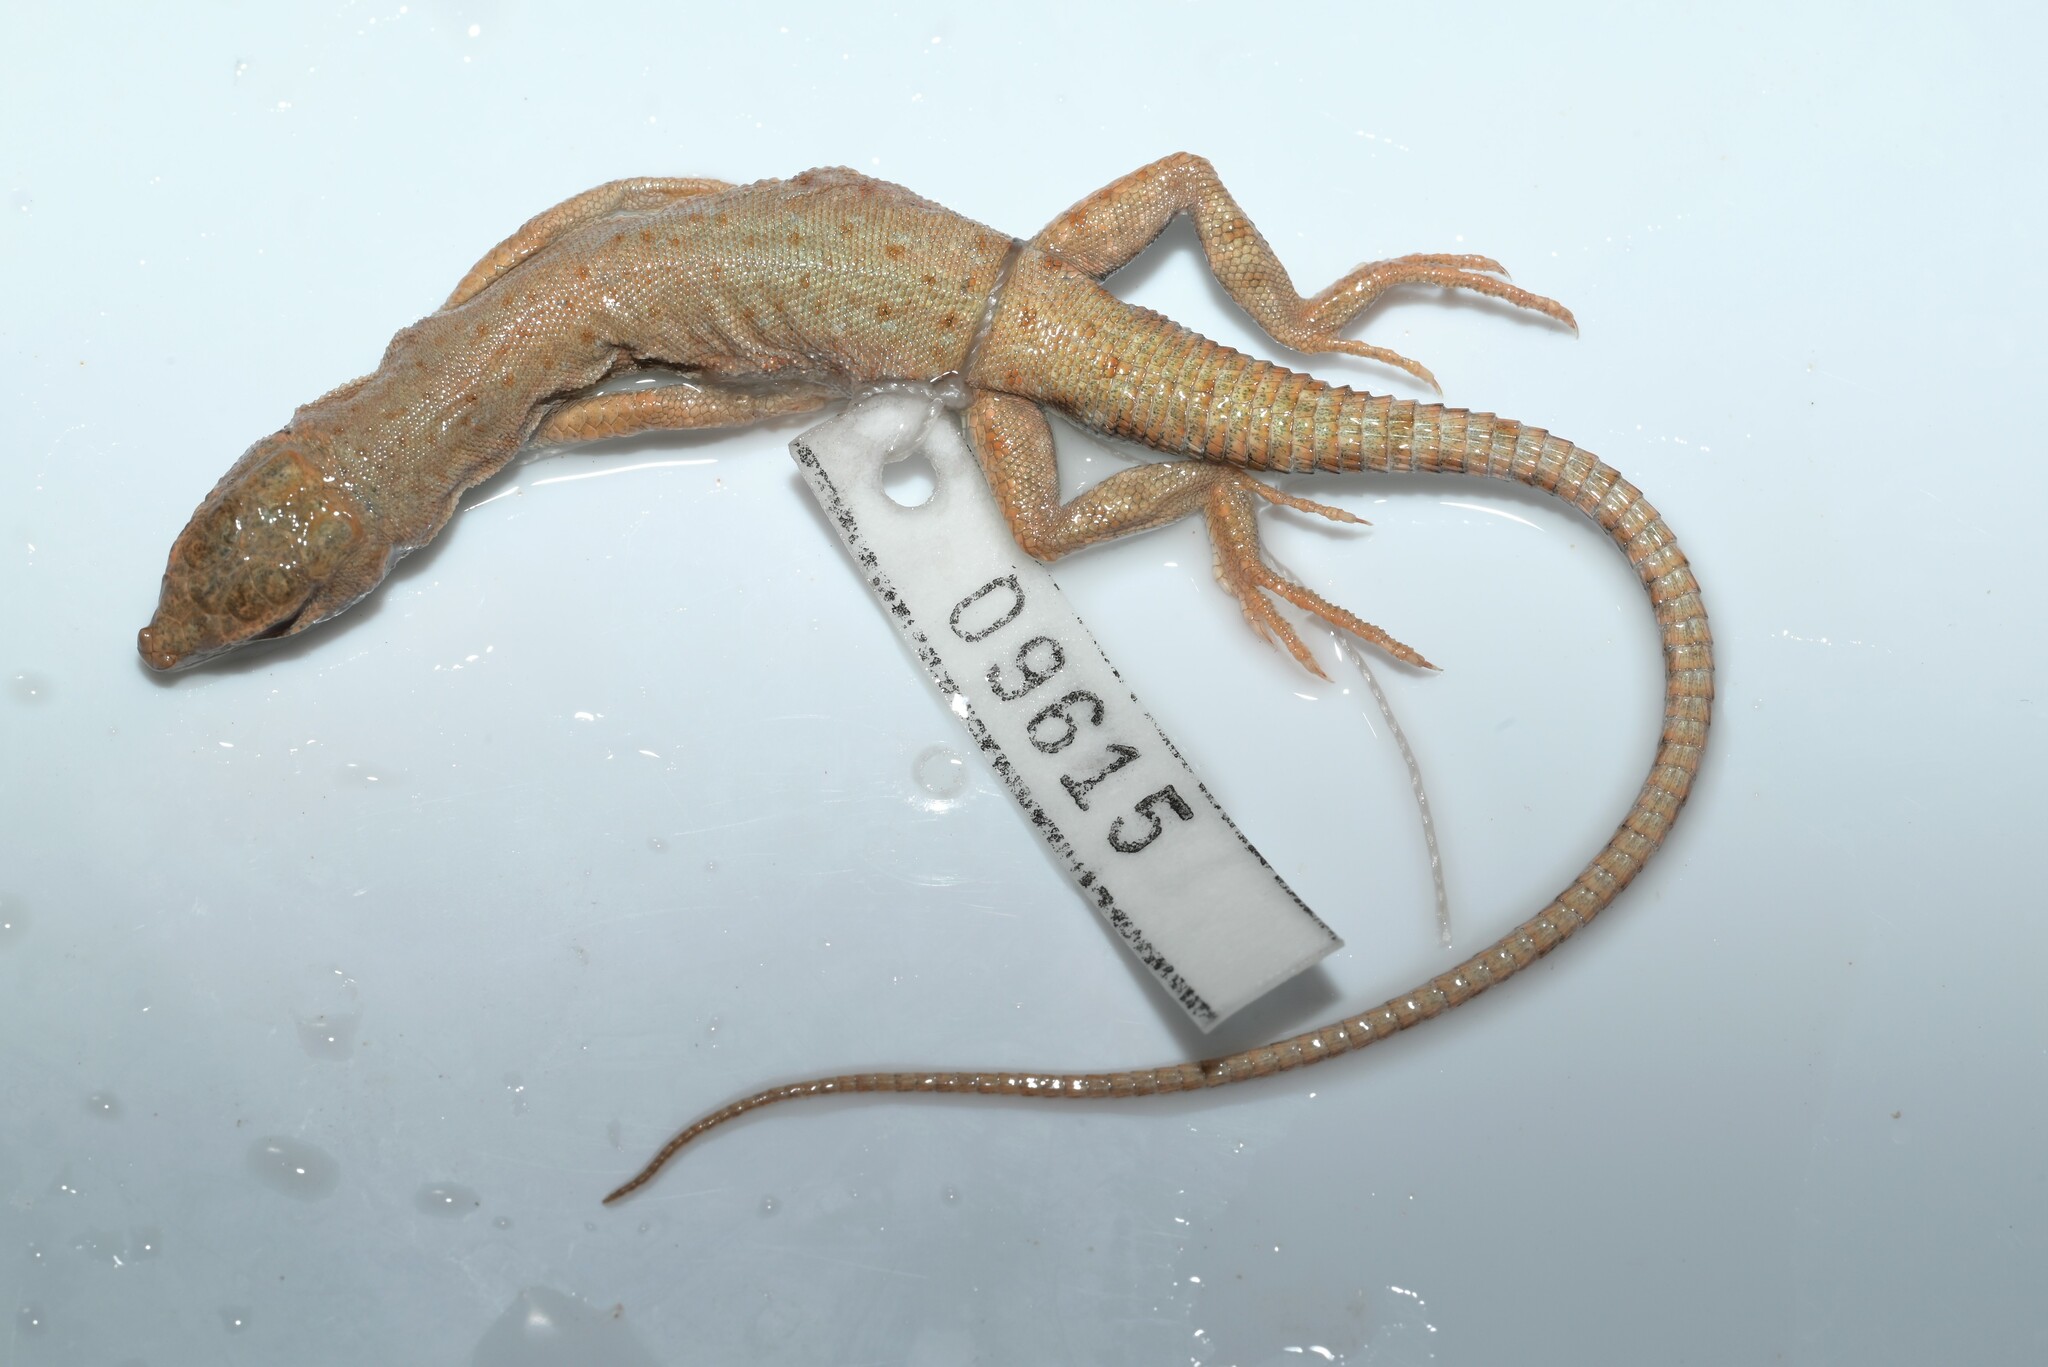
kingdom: Animalia
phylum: Chordata
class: Squamata
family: Lacertidae
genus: Mesalina
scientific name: Mesalina brevirostris
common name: Blanford's short-nosed desert lizard
